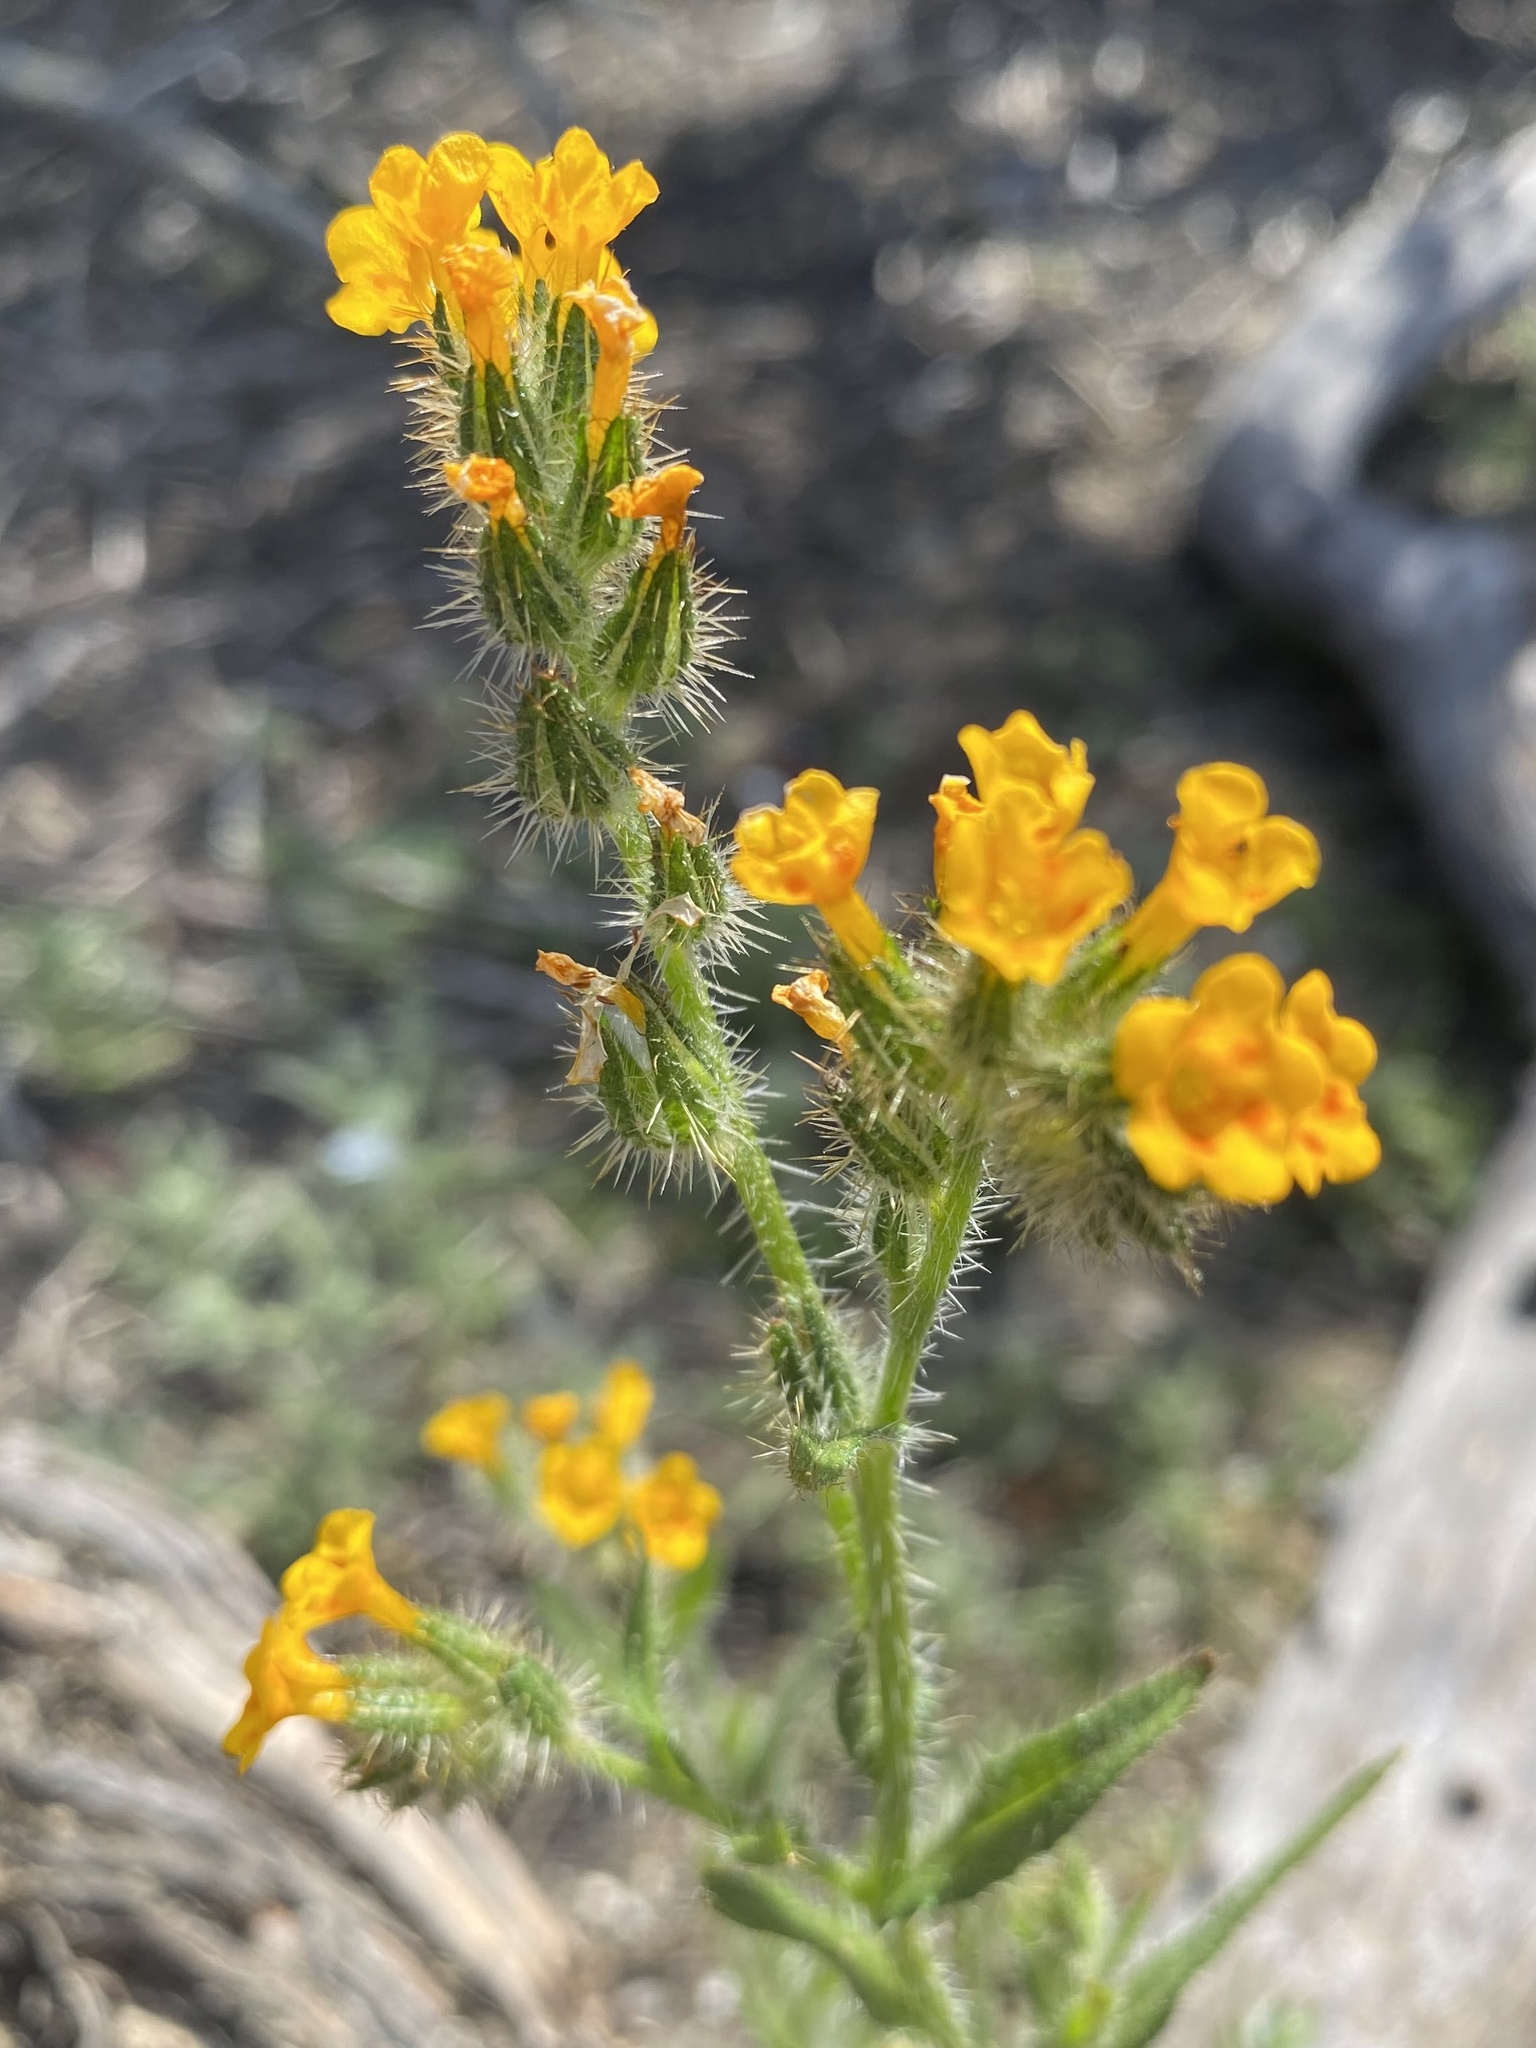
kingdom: Plantae
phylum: Tracheophyta
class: Magnoliopsida
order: Boraginales
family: Boraginaceae
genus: Amsinckia
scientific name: Amsinckia menziesii
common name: Menzies' fiddleneck
